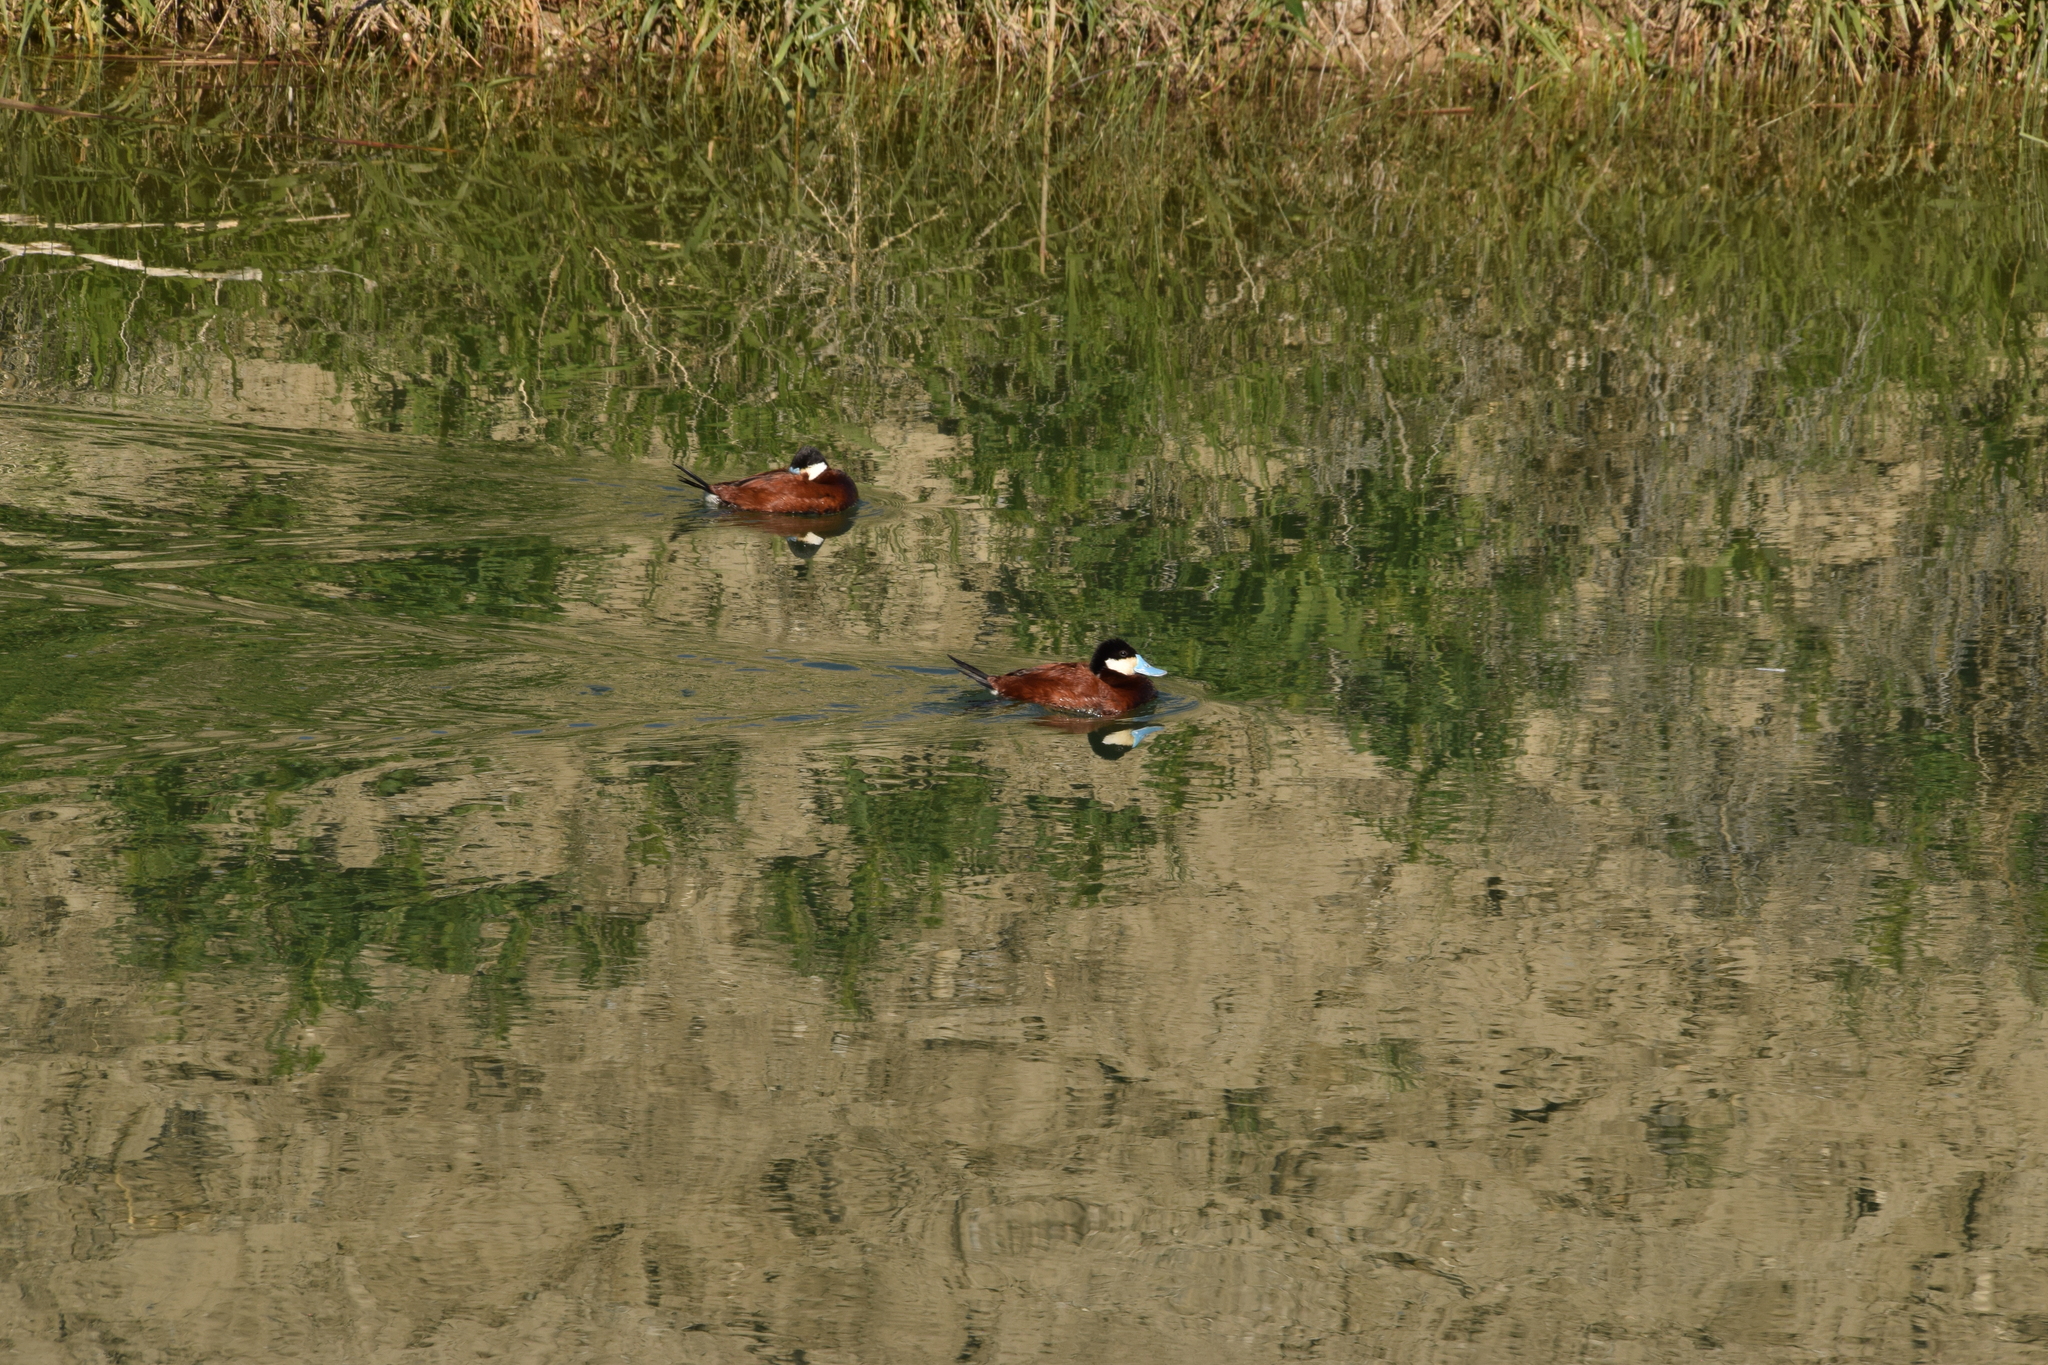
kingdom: Animalia
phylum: Chordata
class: Aves
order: Anseriformes
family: Anatidae
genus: Oxyura
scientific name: Oxyura jamaicensis
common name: Ruddy duck
